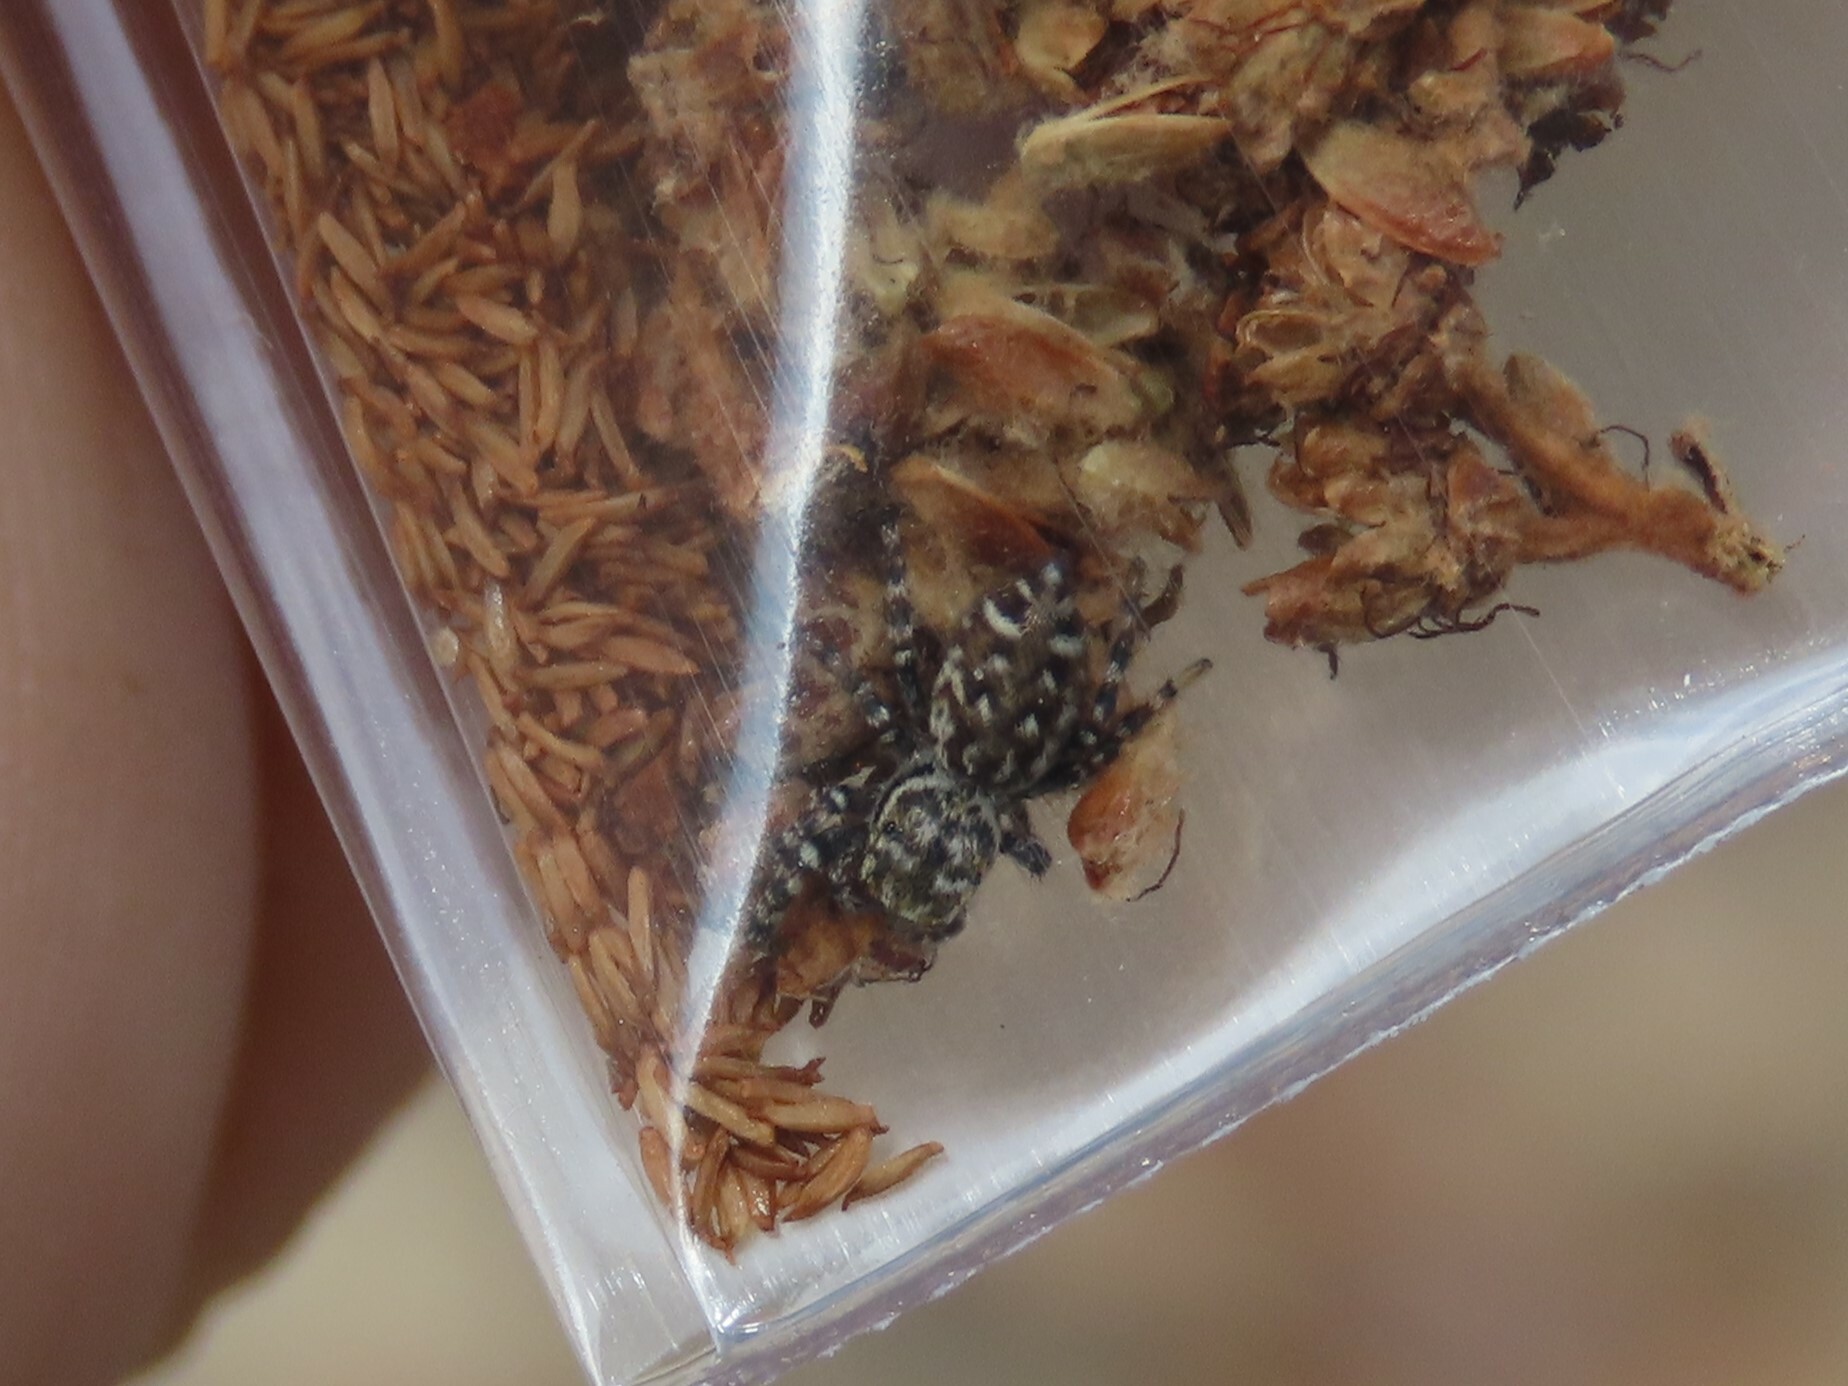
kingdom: Animalia
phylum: Arthropoda
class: Arachnida
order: Araneae
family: Salticidae
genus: Pelegrina
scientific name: Pelegrina galathea
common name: Jumping spiders
